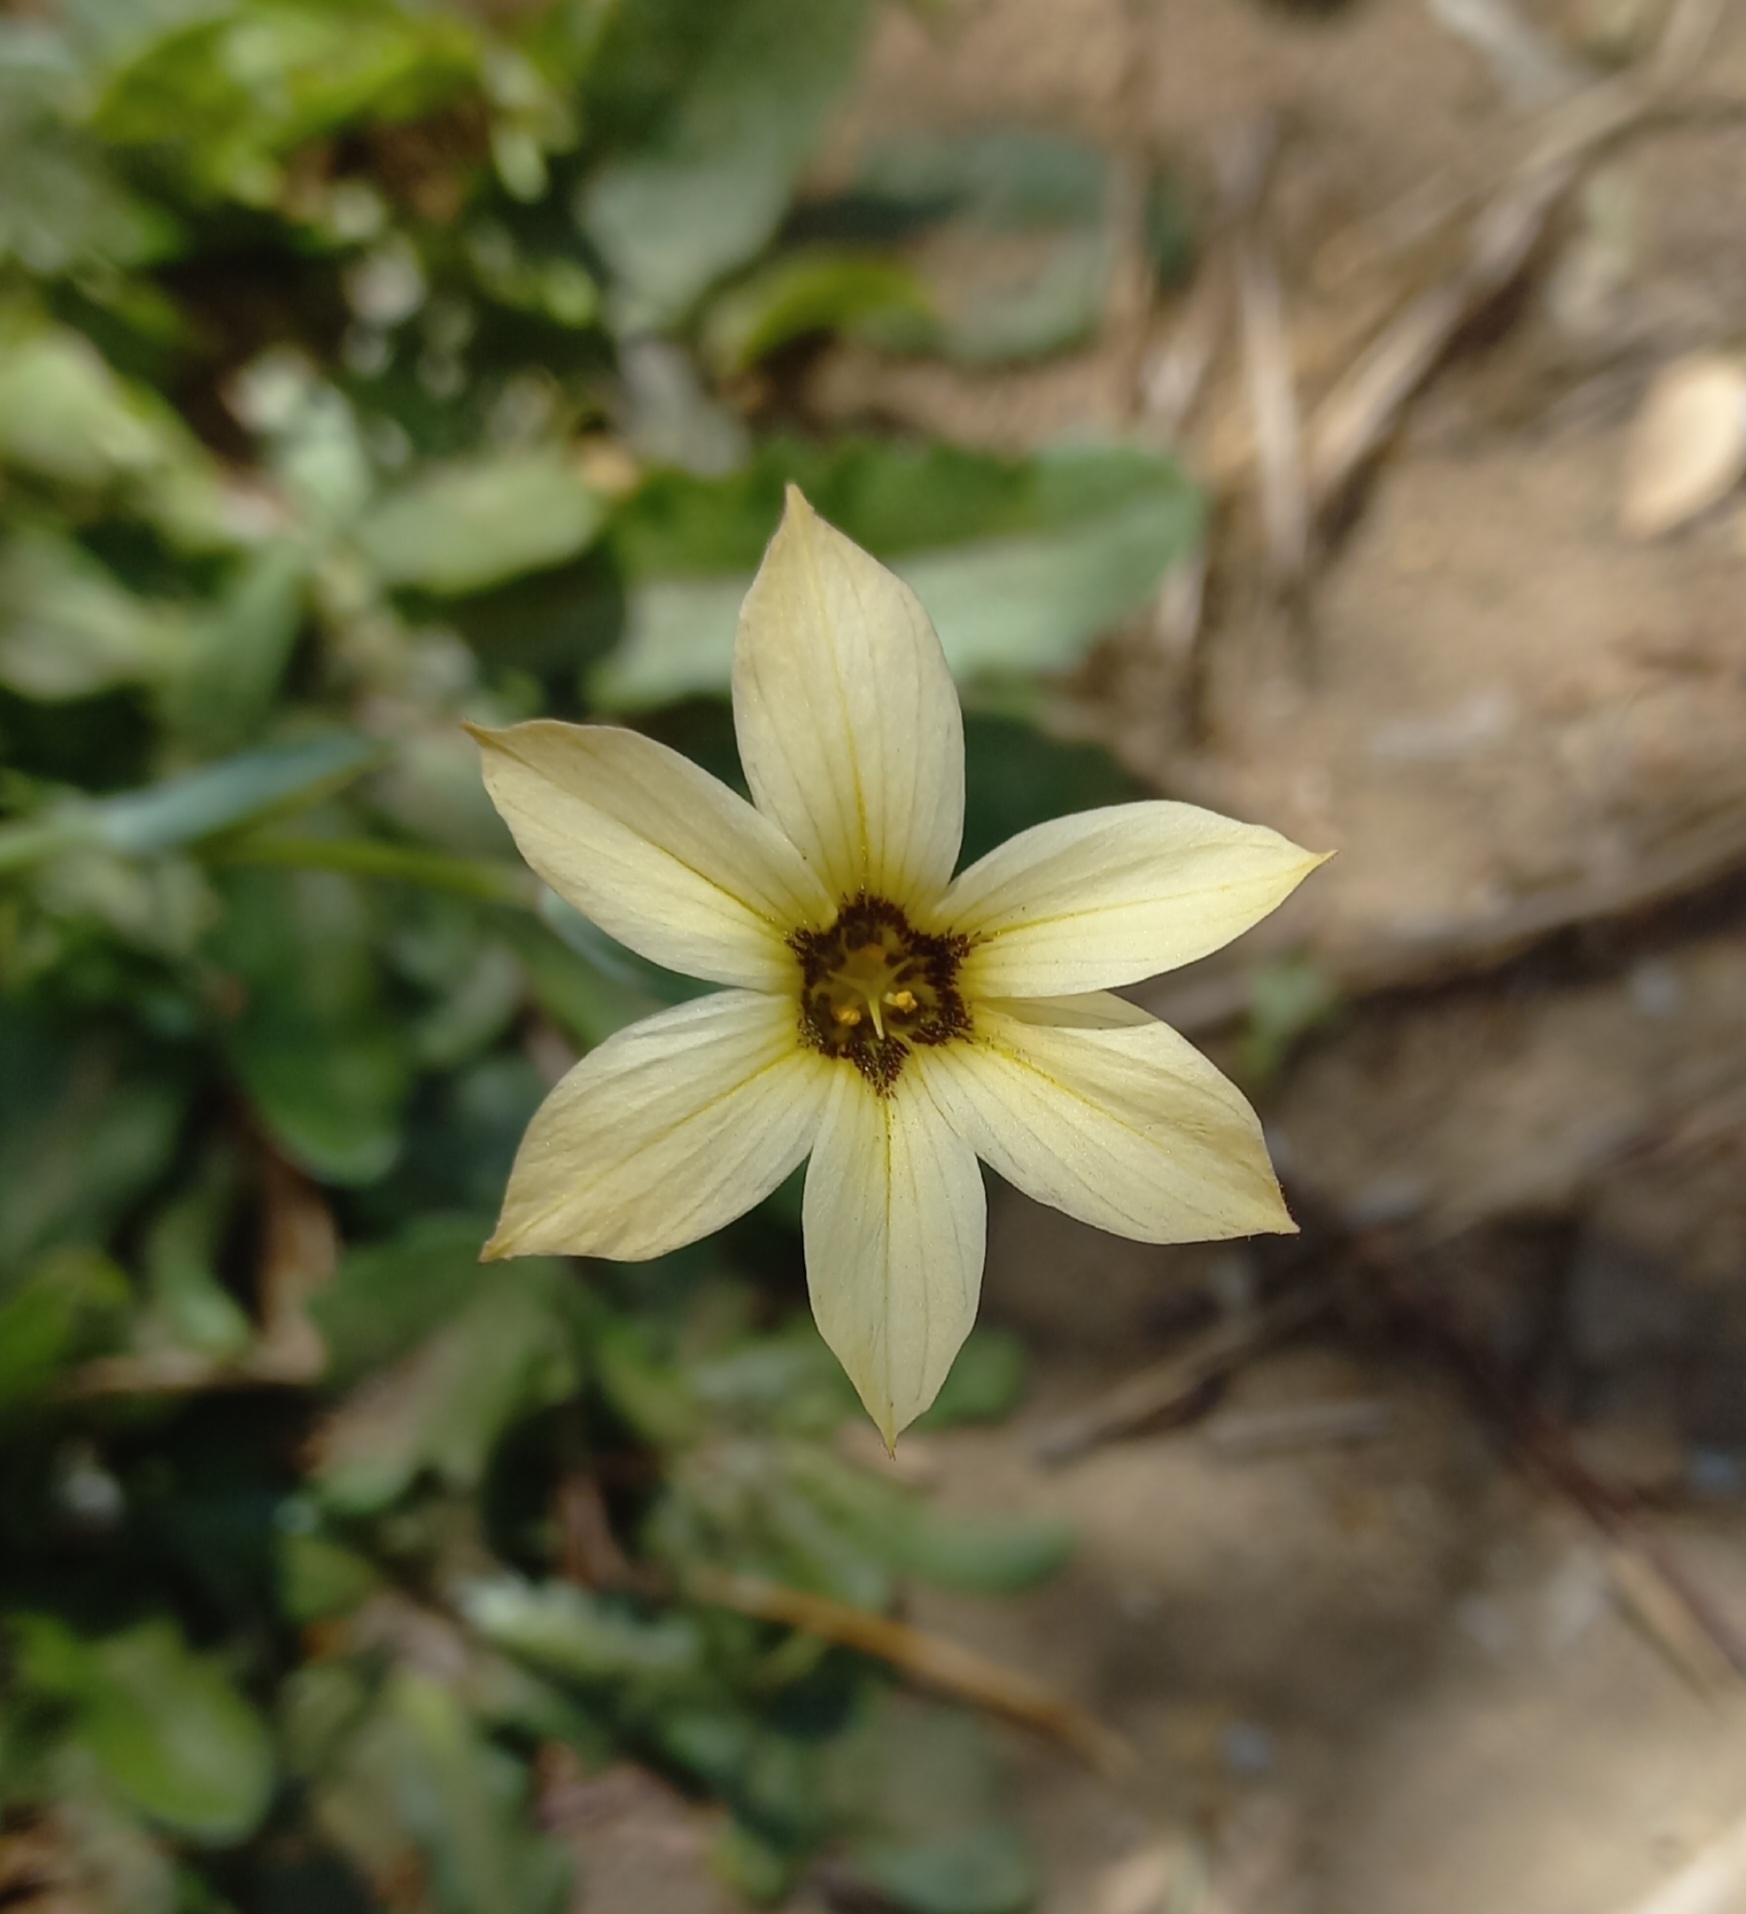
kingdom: Plantae
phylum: Tracheophyta
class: Liliopsida
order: Asparagales
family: Iridaceae
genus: Sisyrinchium
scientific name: Sisyrinchium arenarium
